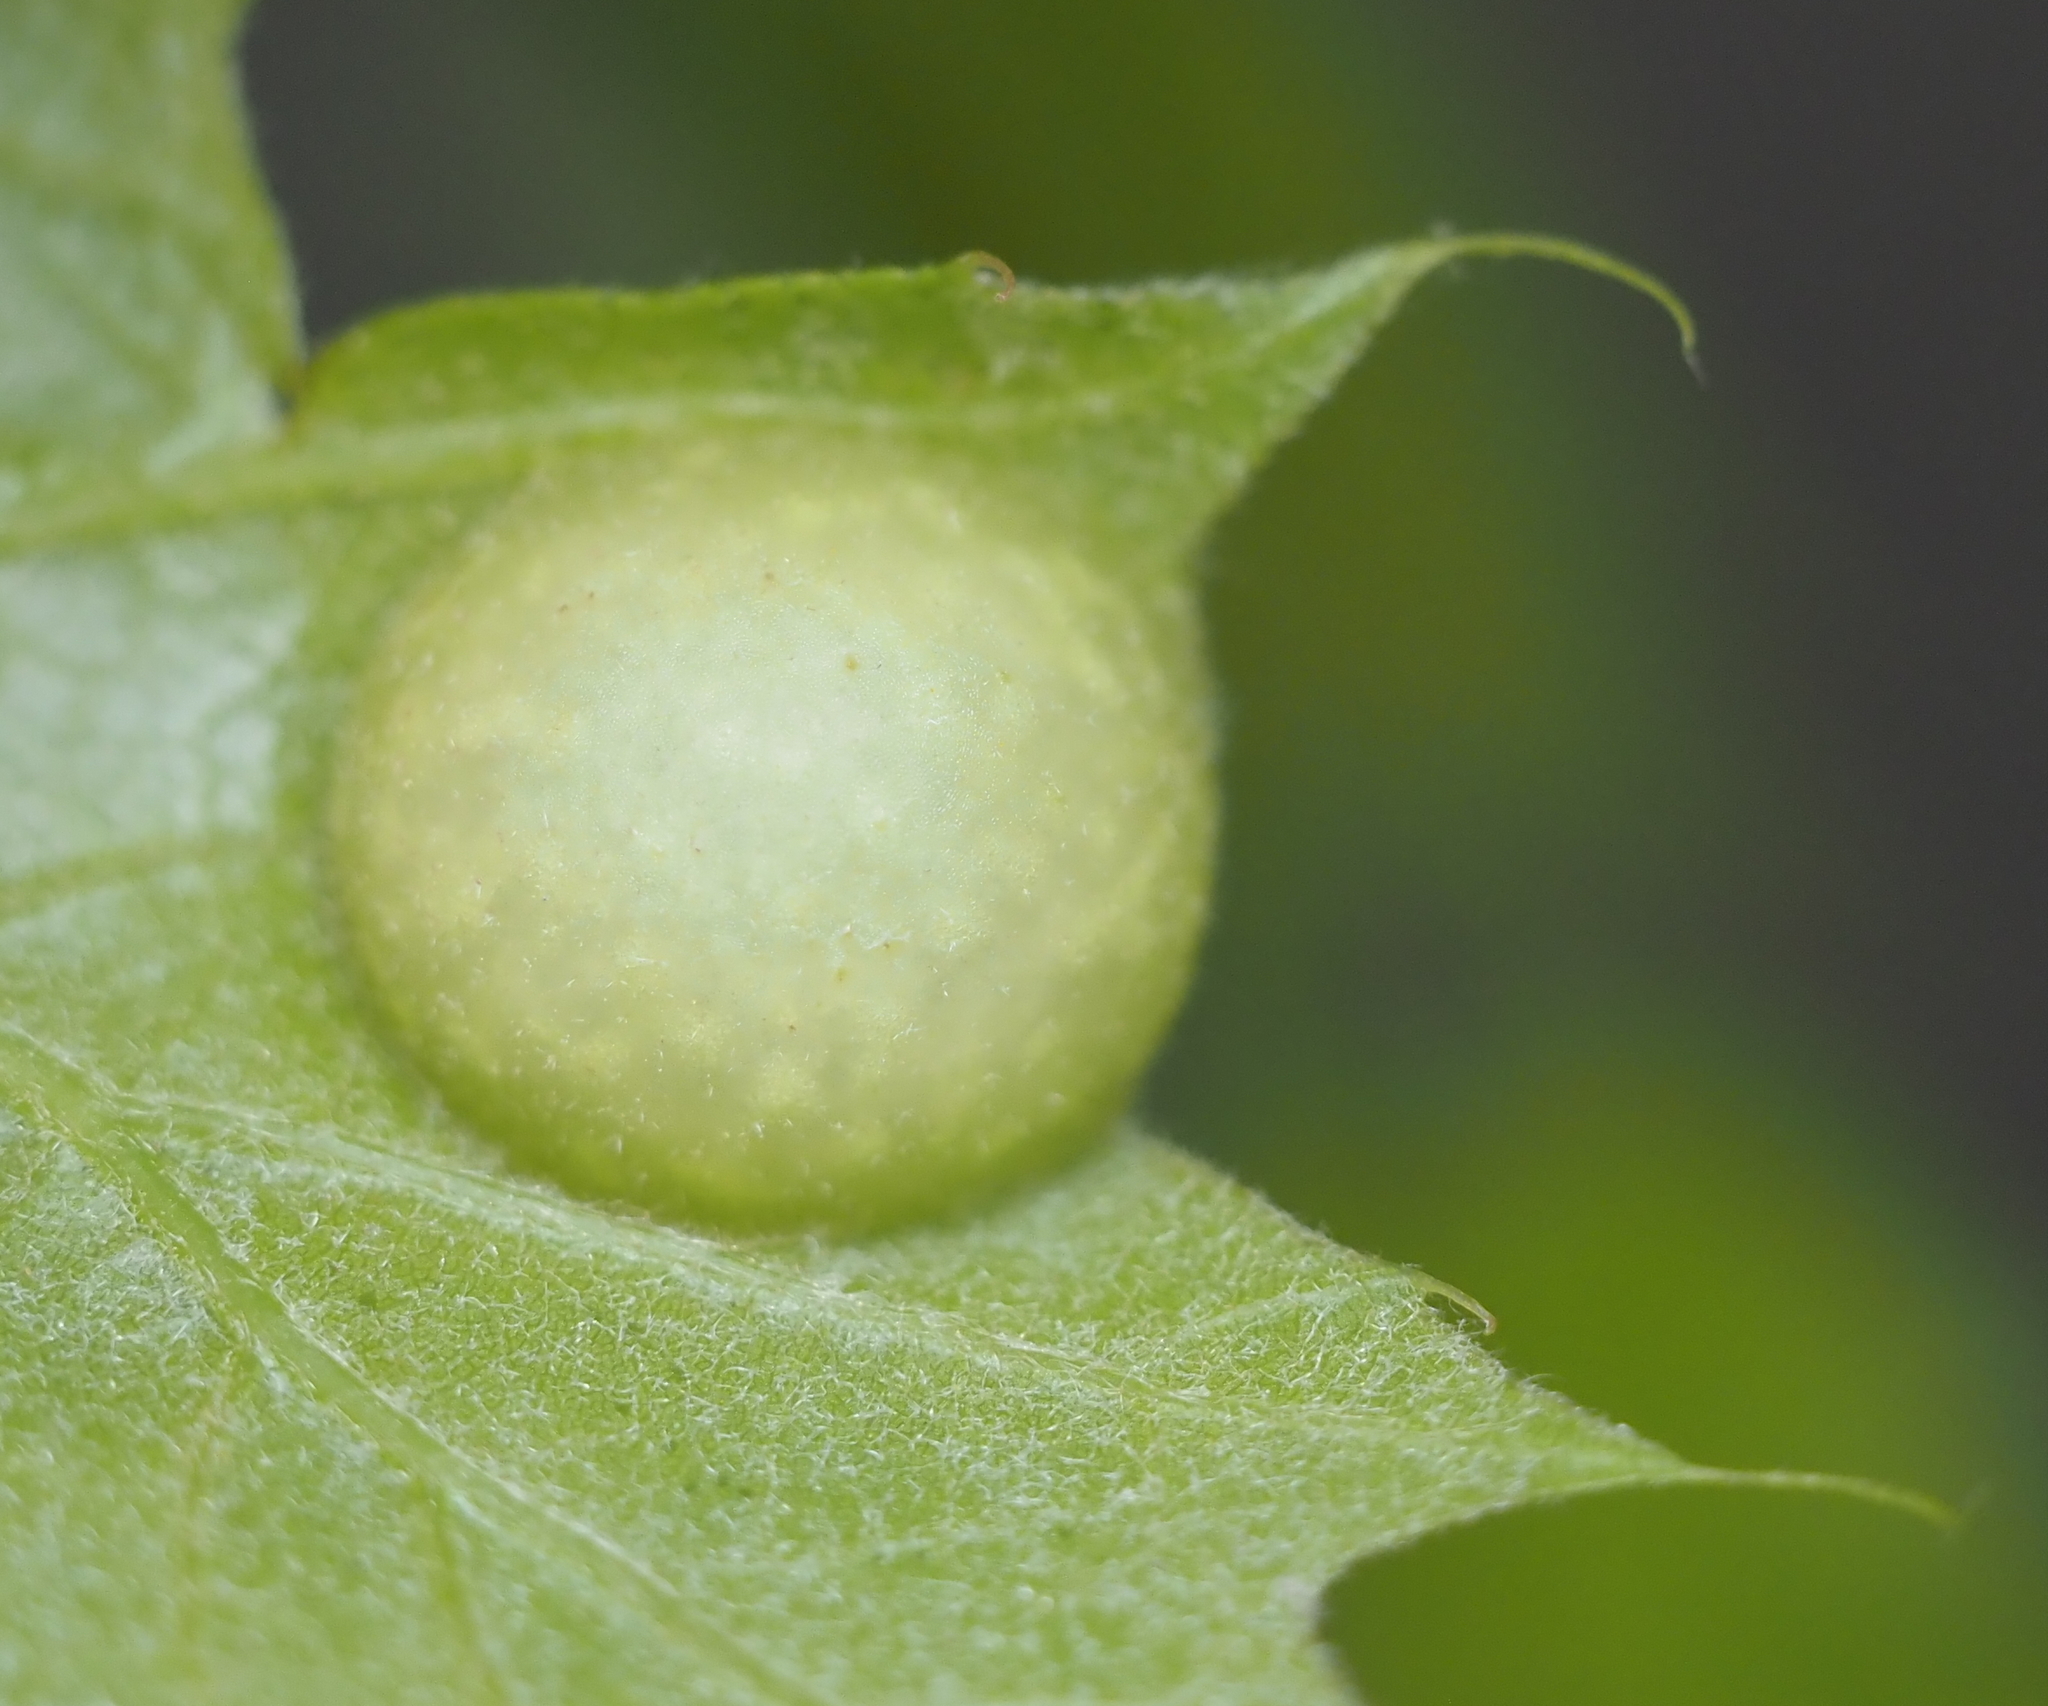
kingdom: Animalia
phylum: Arthropoda
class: Insecta
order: Hymenoptera
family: Cynipidae
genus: Amphibolips
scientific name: Amphibolips
